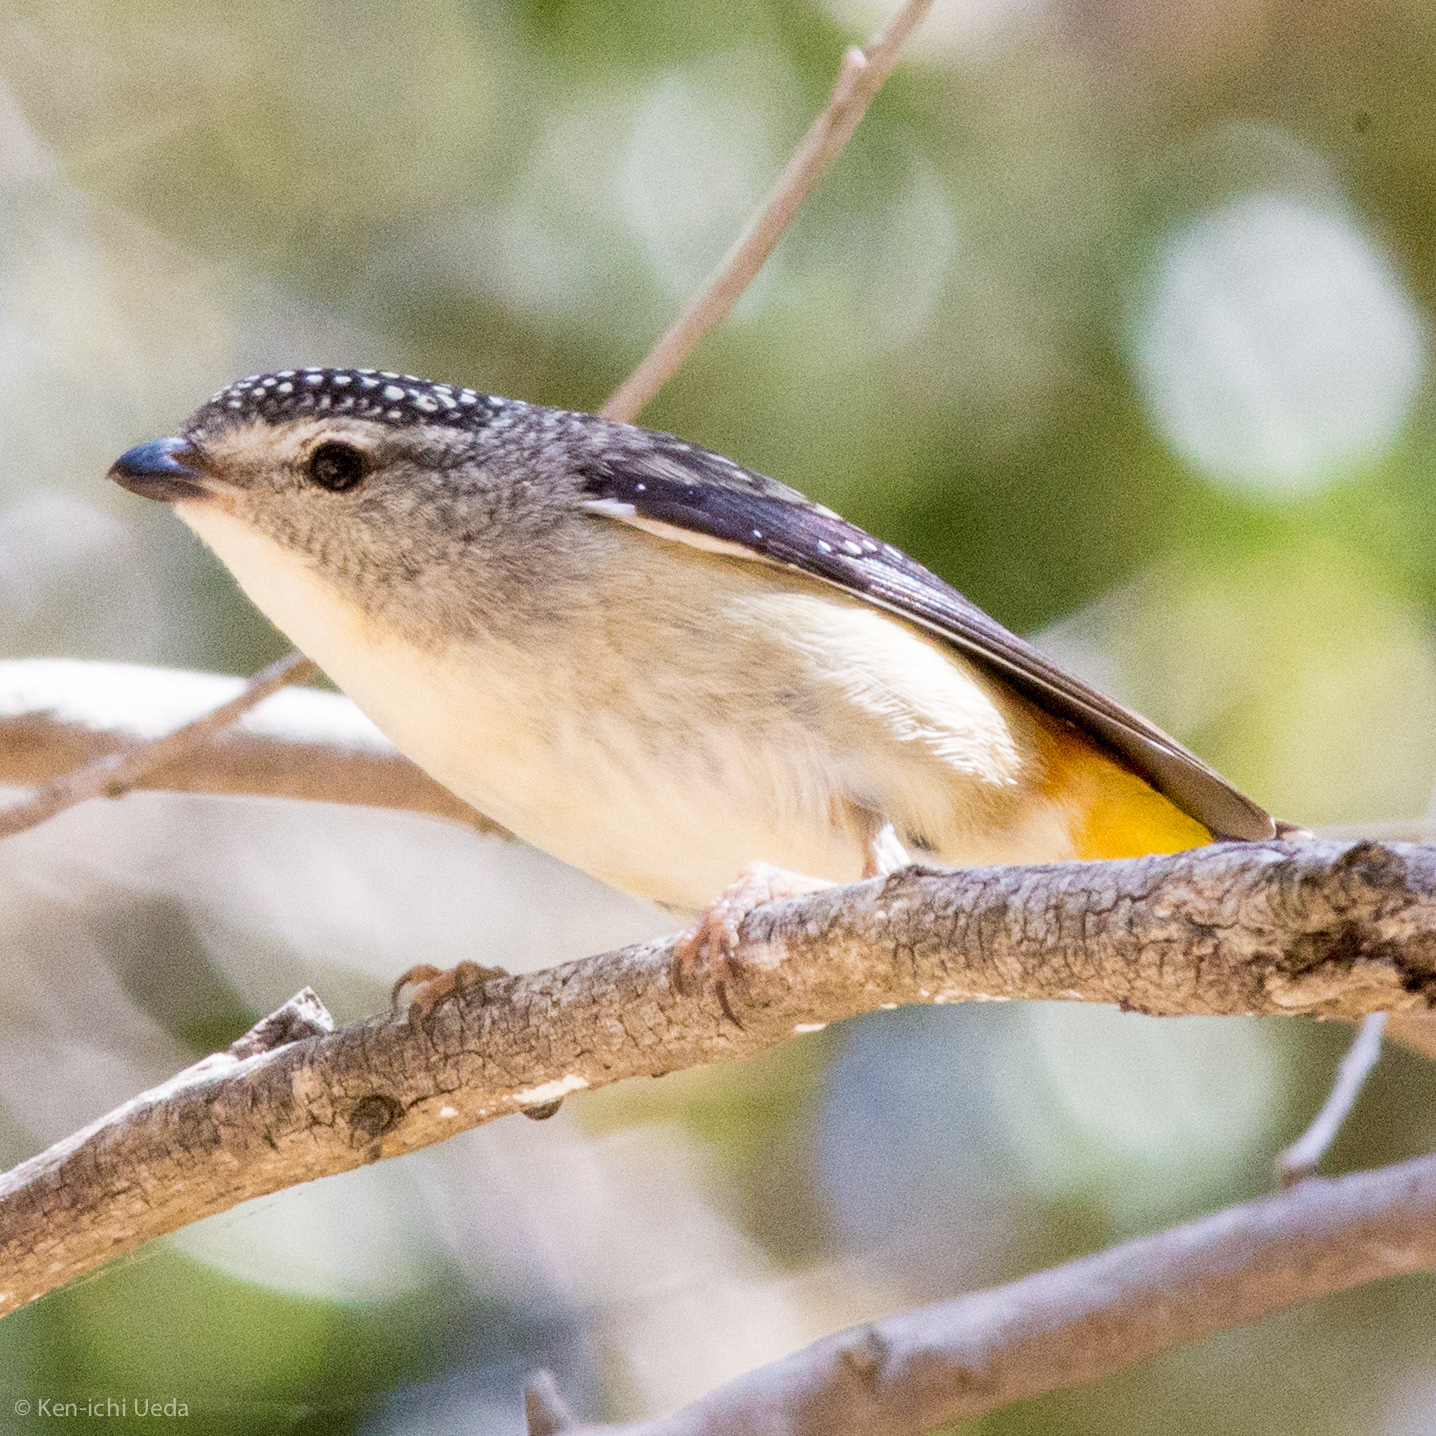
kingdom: Animalia
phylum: Chordata
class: Aves
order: Passeriformes
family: Pardalotidae
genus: Pardalotus
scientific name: Pardalotus punctatus
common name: Spotted pardalote
